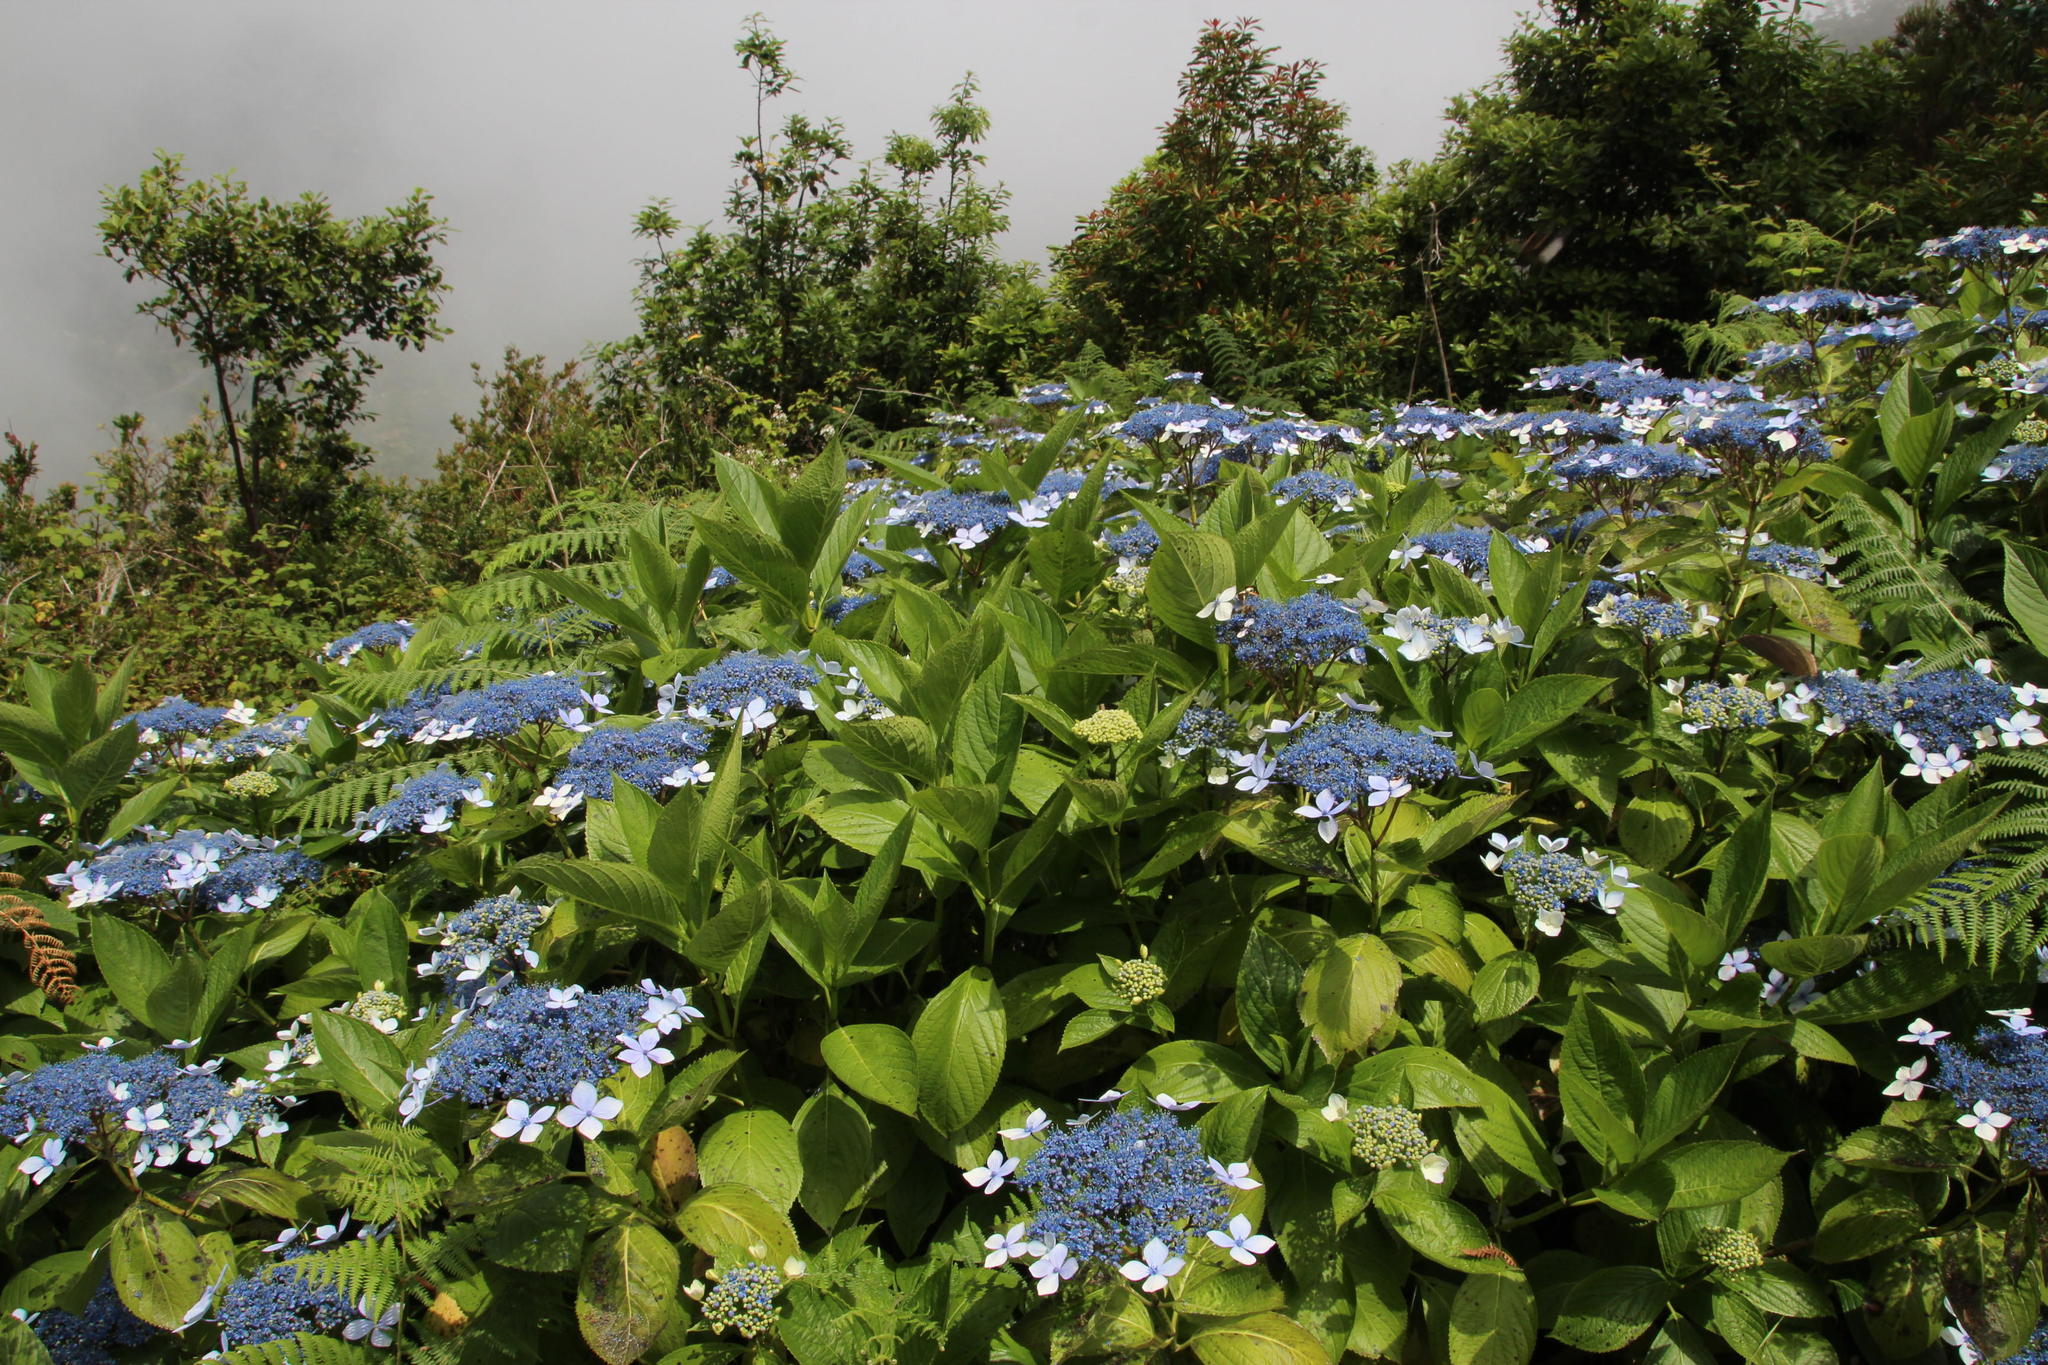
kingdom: Plantae
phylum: Tracheophyta
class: Magnoliopsida
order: Cornales
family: Hydrangeaceae
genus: Hydrangea
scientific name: Hydrangea macrophylla
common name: Hydrangea
